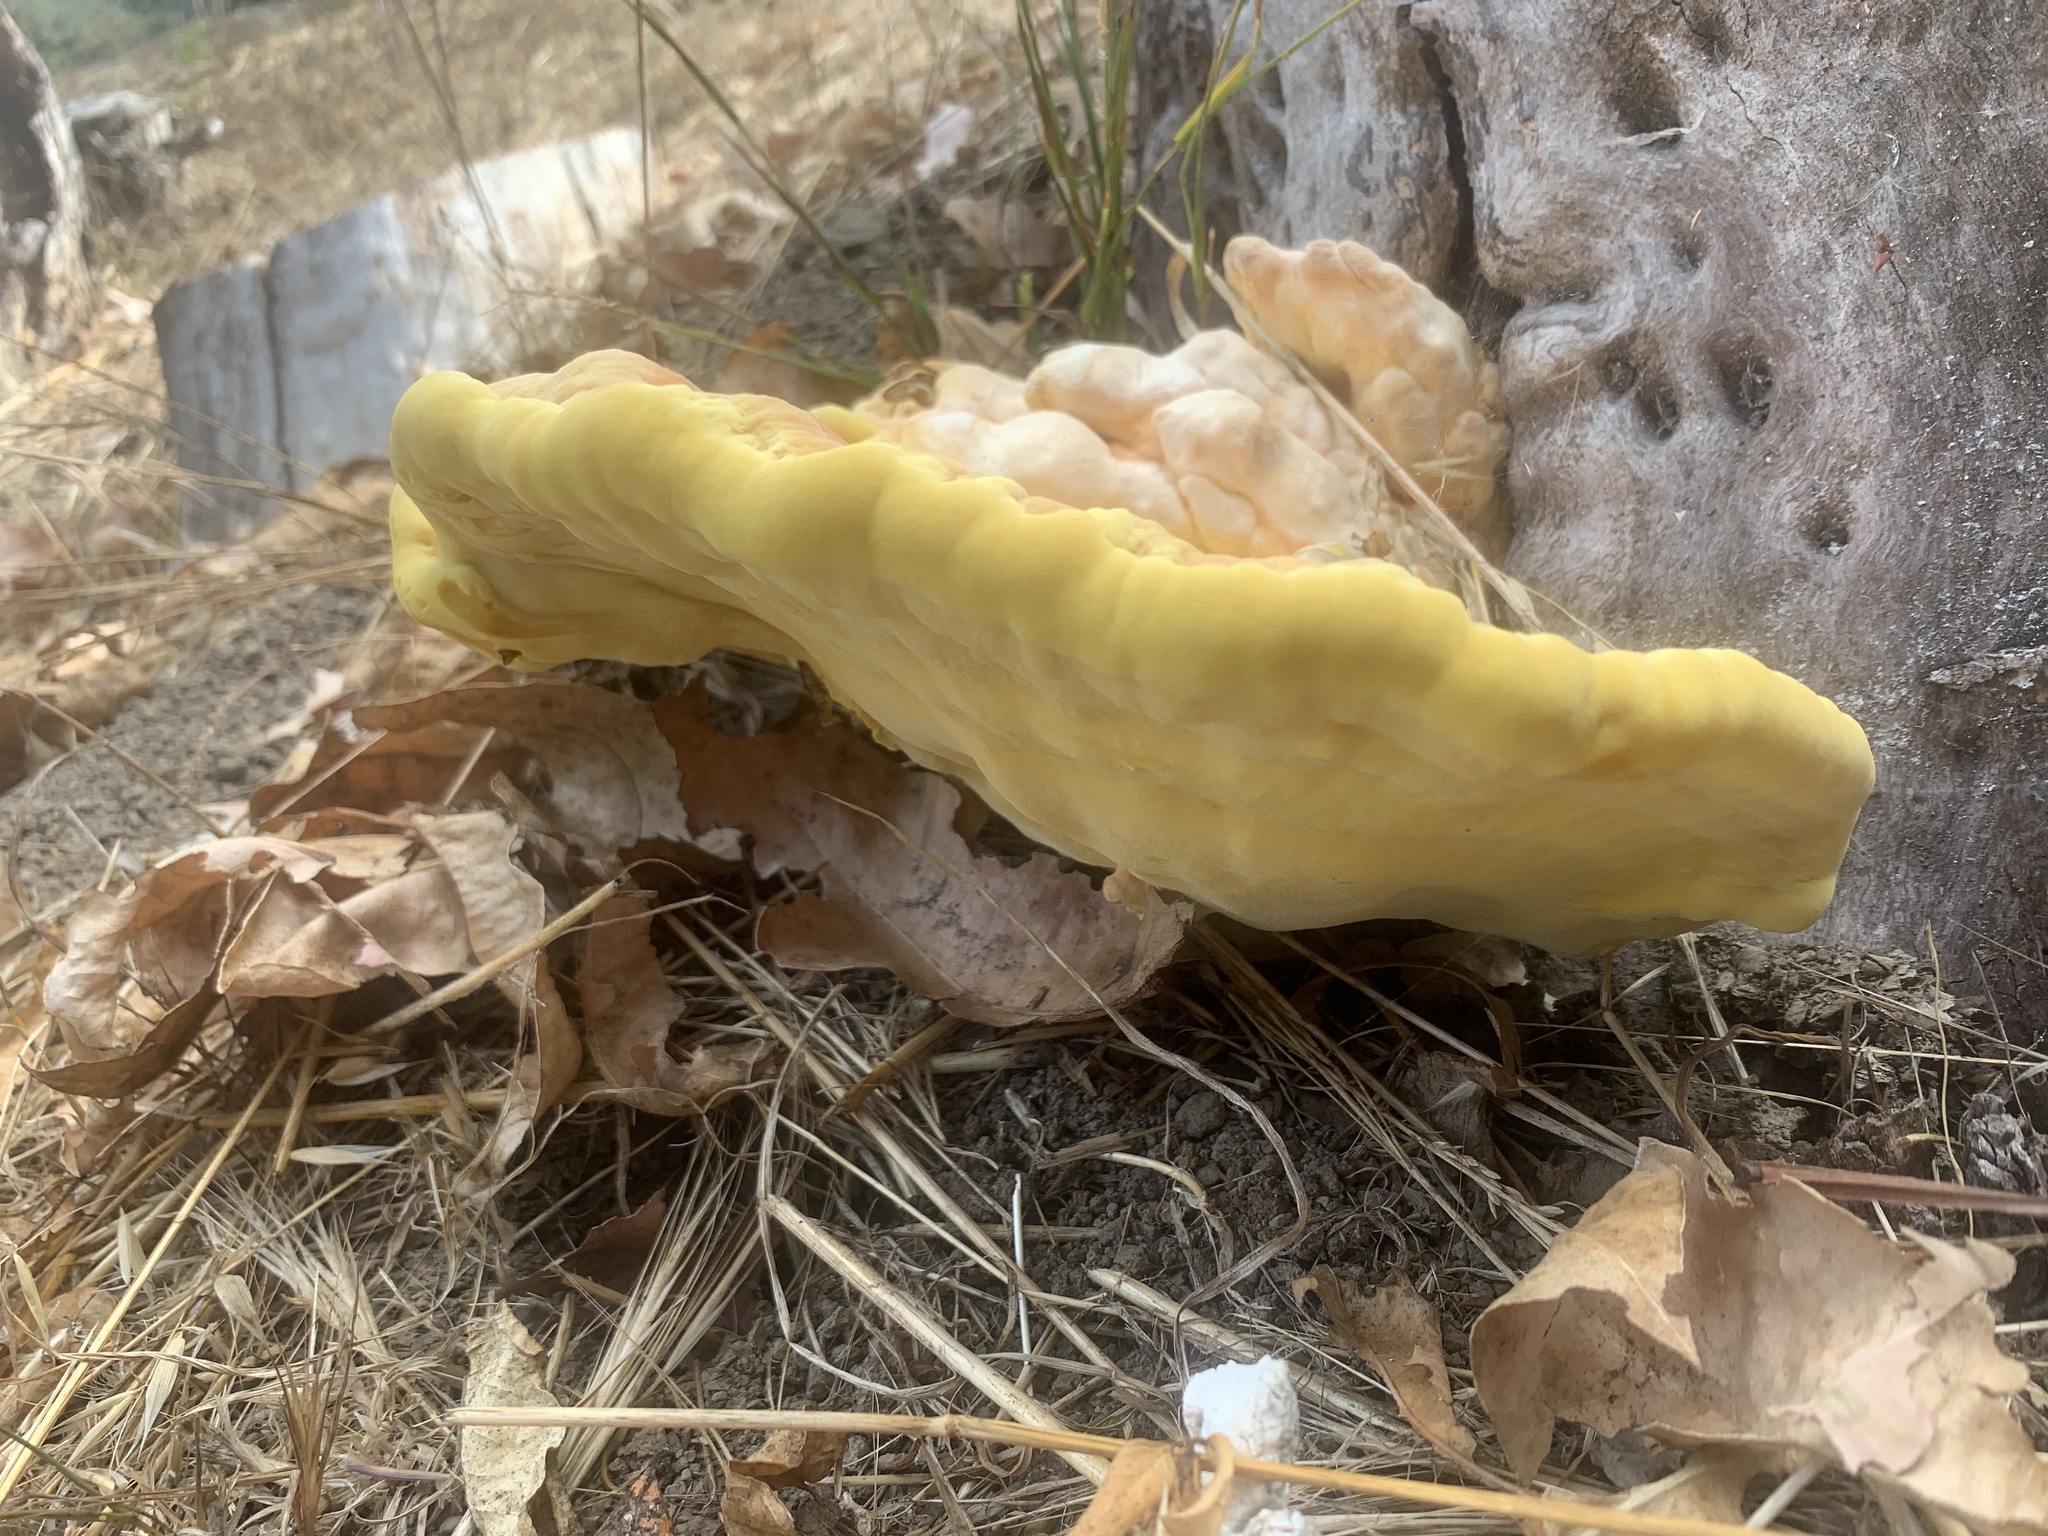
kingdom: Fungi
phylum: Basidiomycota
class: Agaricomycetes
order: Polyporales
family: Laetiporaceae
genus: Laetiporus
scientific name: Laetiporus gilbertsonii
